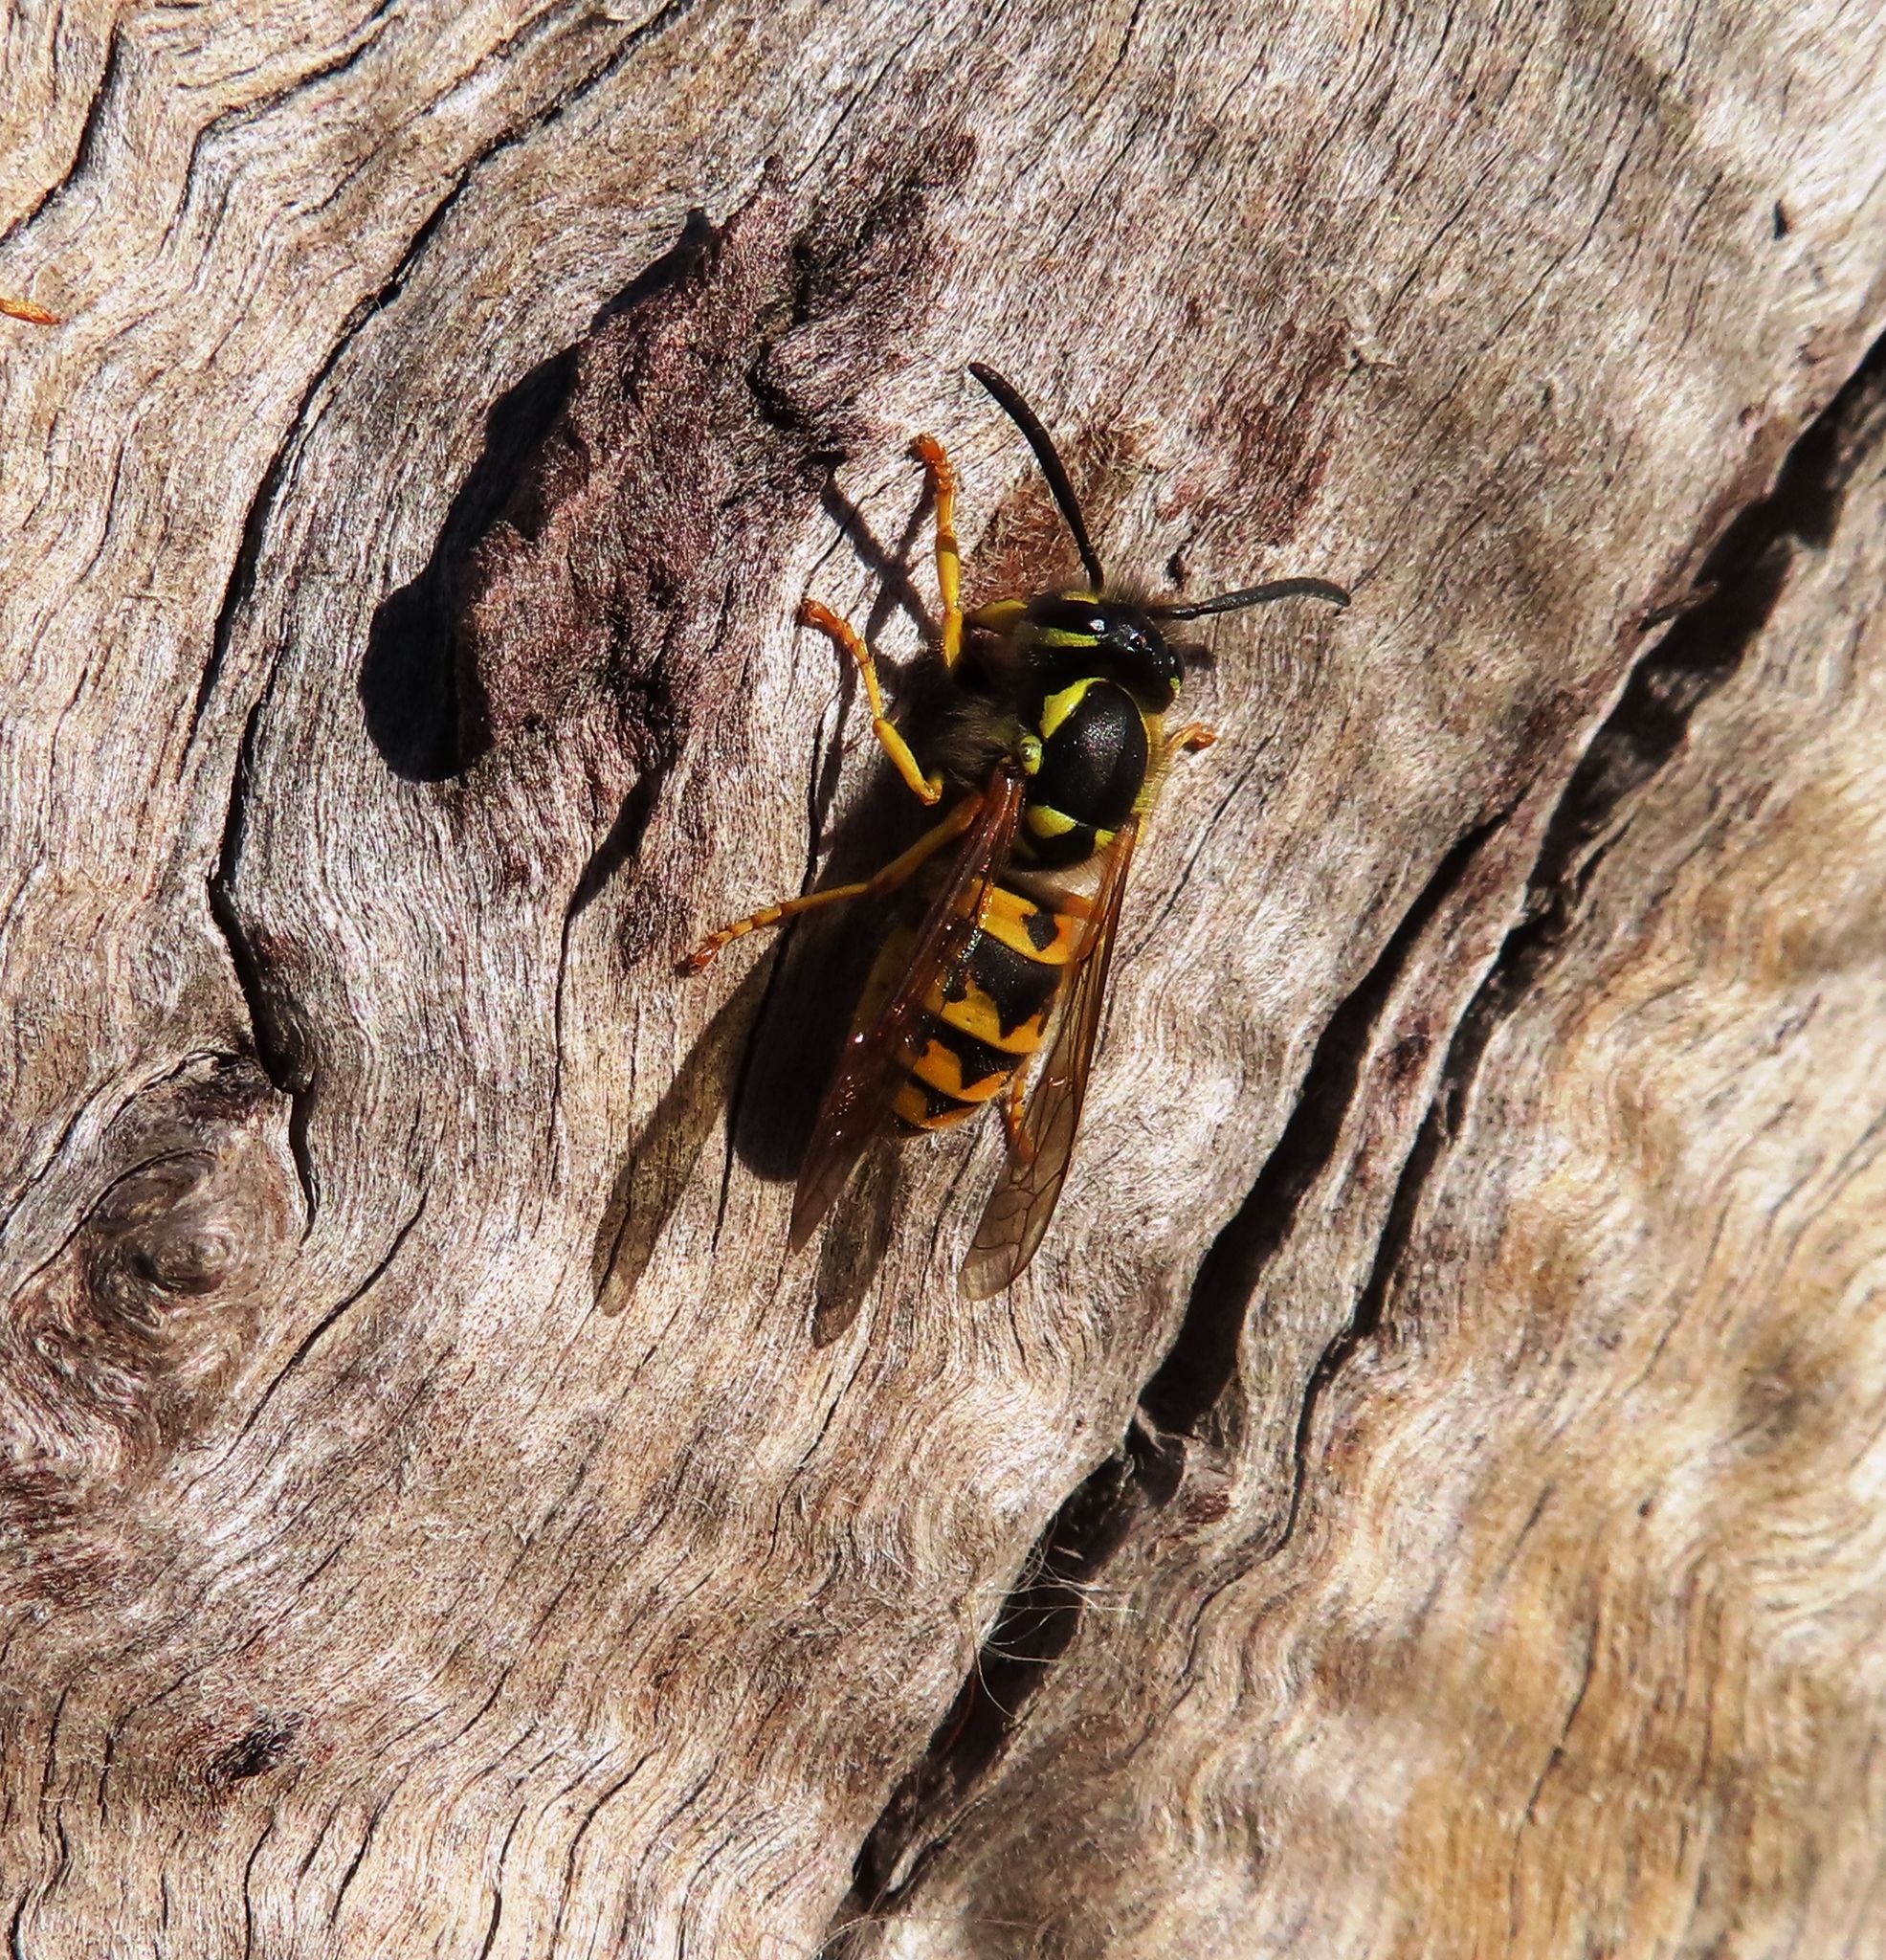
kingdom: Animalia
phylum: Arthropoda
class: Insecta
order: Hymenoptera
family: Vespidae
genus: Vespula
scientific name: Vespula germanica
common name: German wasp
